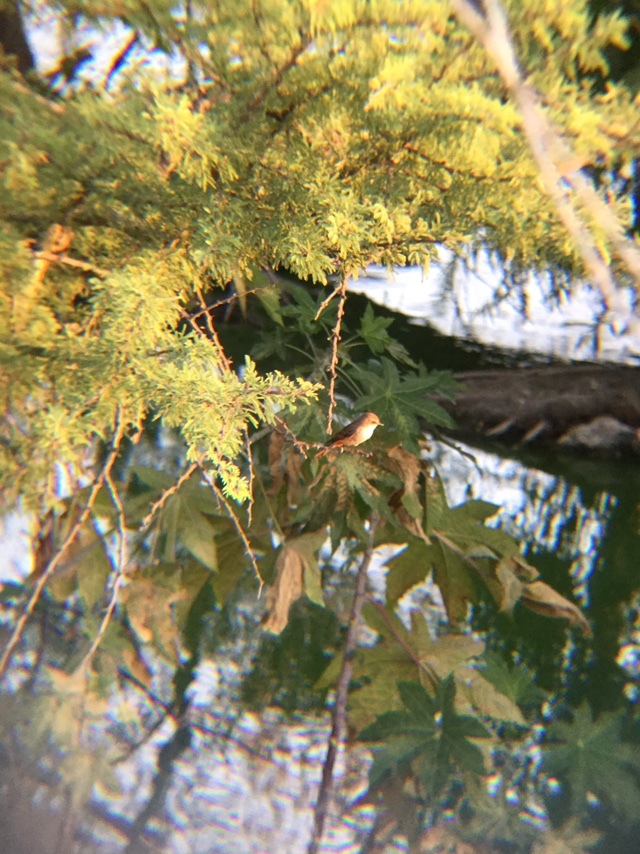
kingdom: Animalia
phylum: Chordata
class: Aves
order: Passeriformes
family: Tyrannidae
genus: Pyrocephalus
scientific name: Pyrocephalus rubinus
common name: Vermilion flycatcher
